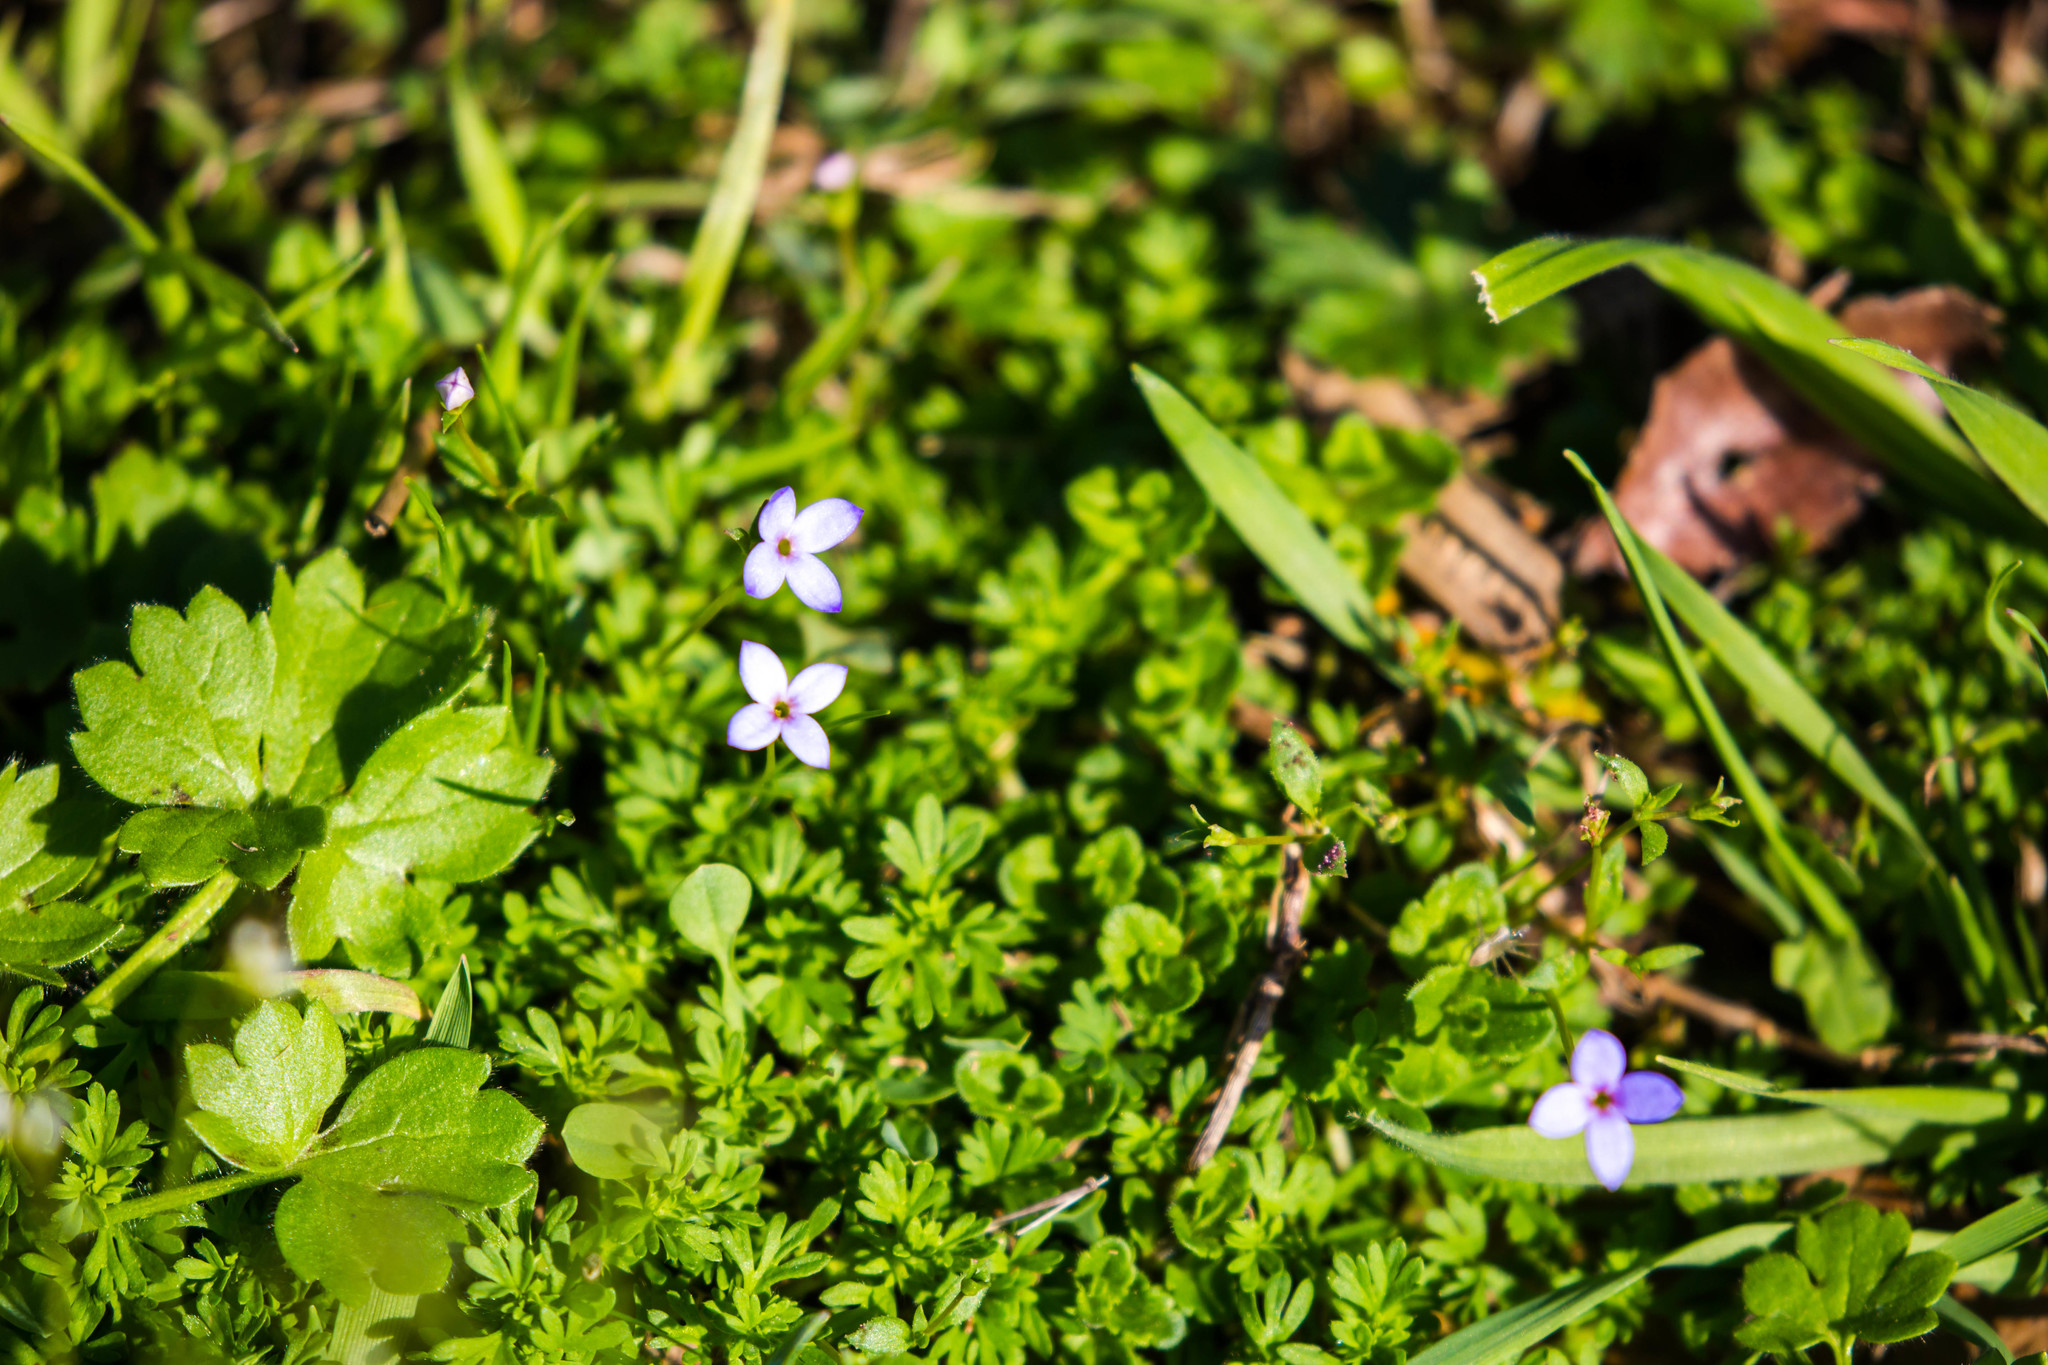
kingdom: Plantae
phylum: Tracheophyta
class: Magnoliopsida
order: Gentianales
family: Rubiaceae
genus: Houstonia
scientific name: Houstonia pusilla
